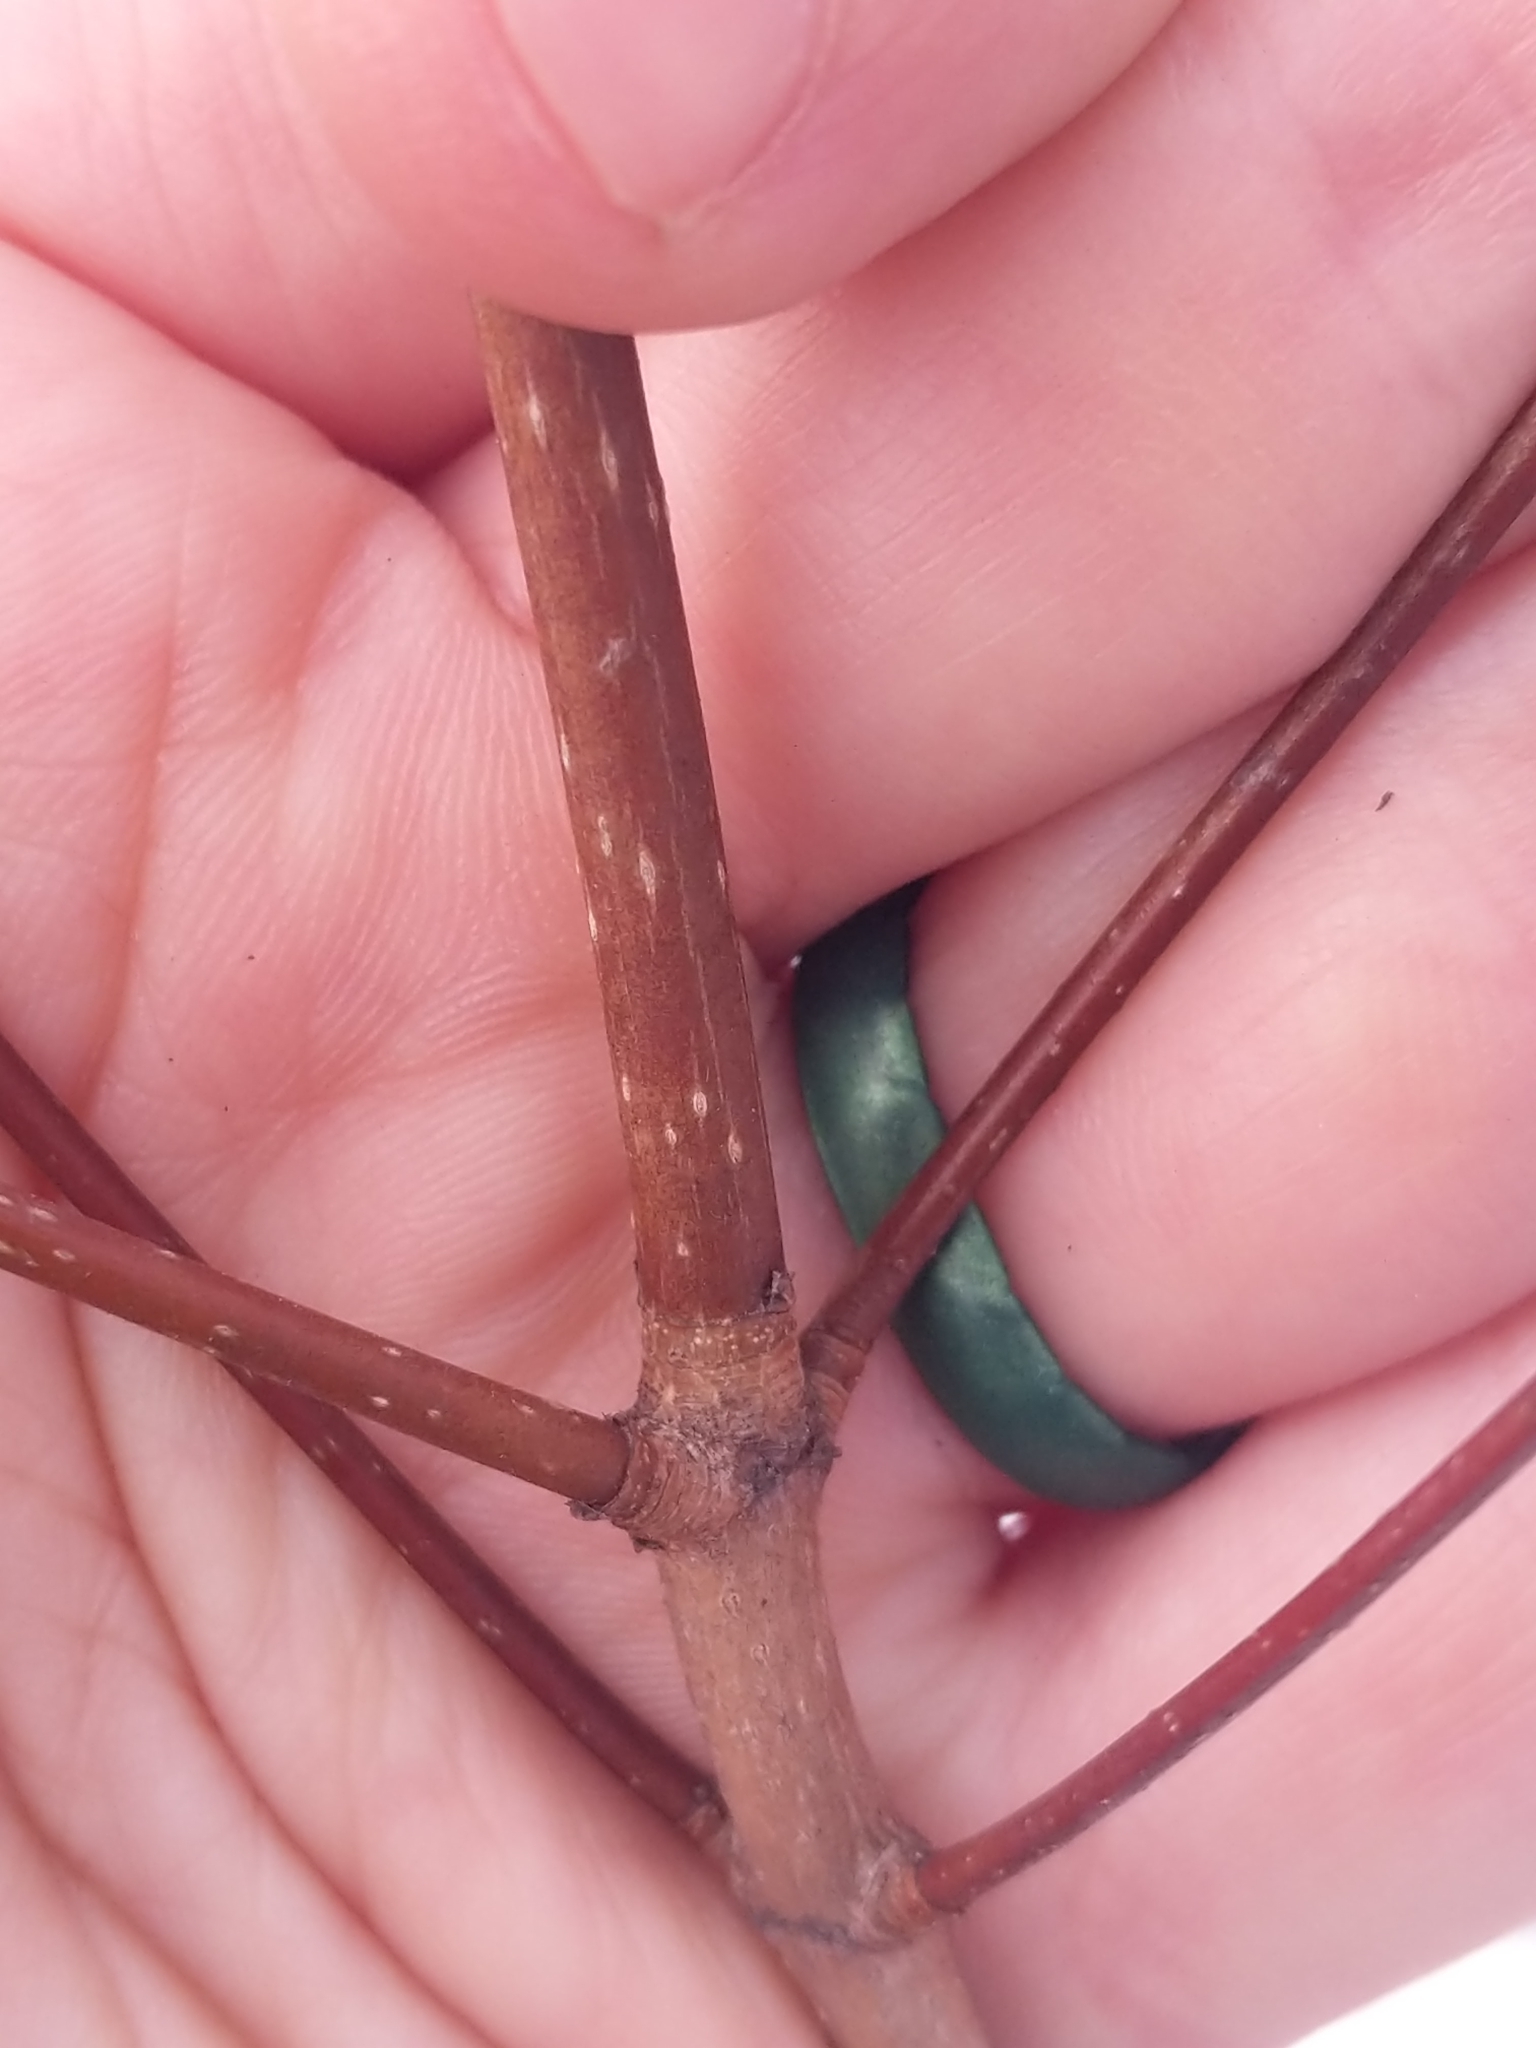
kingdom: Plantae
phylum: Tracheophyta
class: Magnoliopsida
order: Sapindales
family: Sapindaceae
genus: Acer
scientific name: Acer saccharum
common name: Sugar maple
